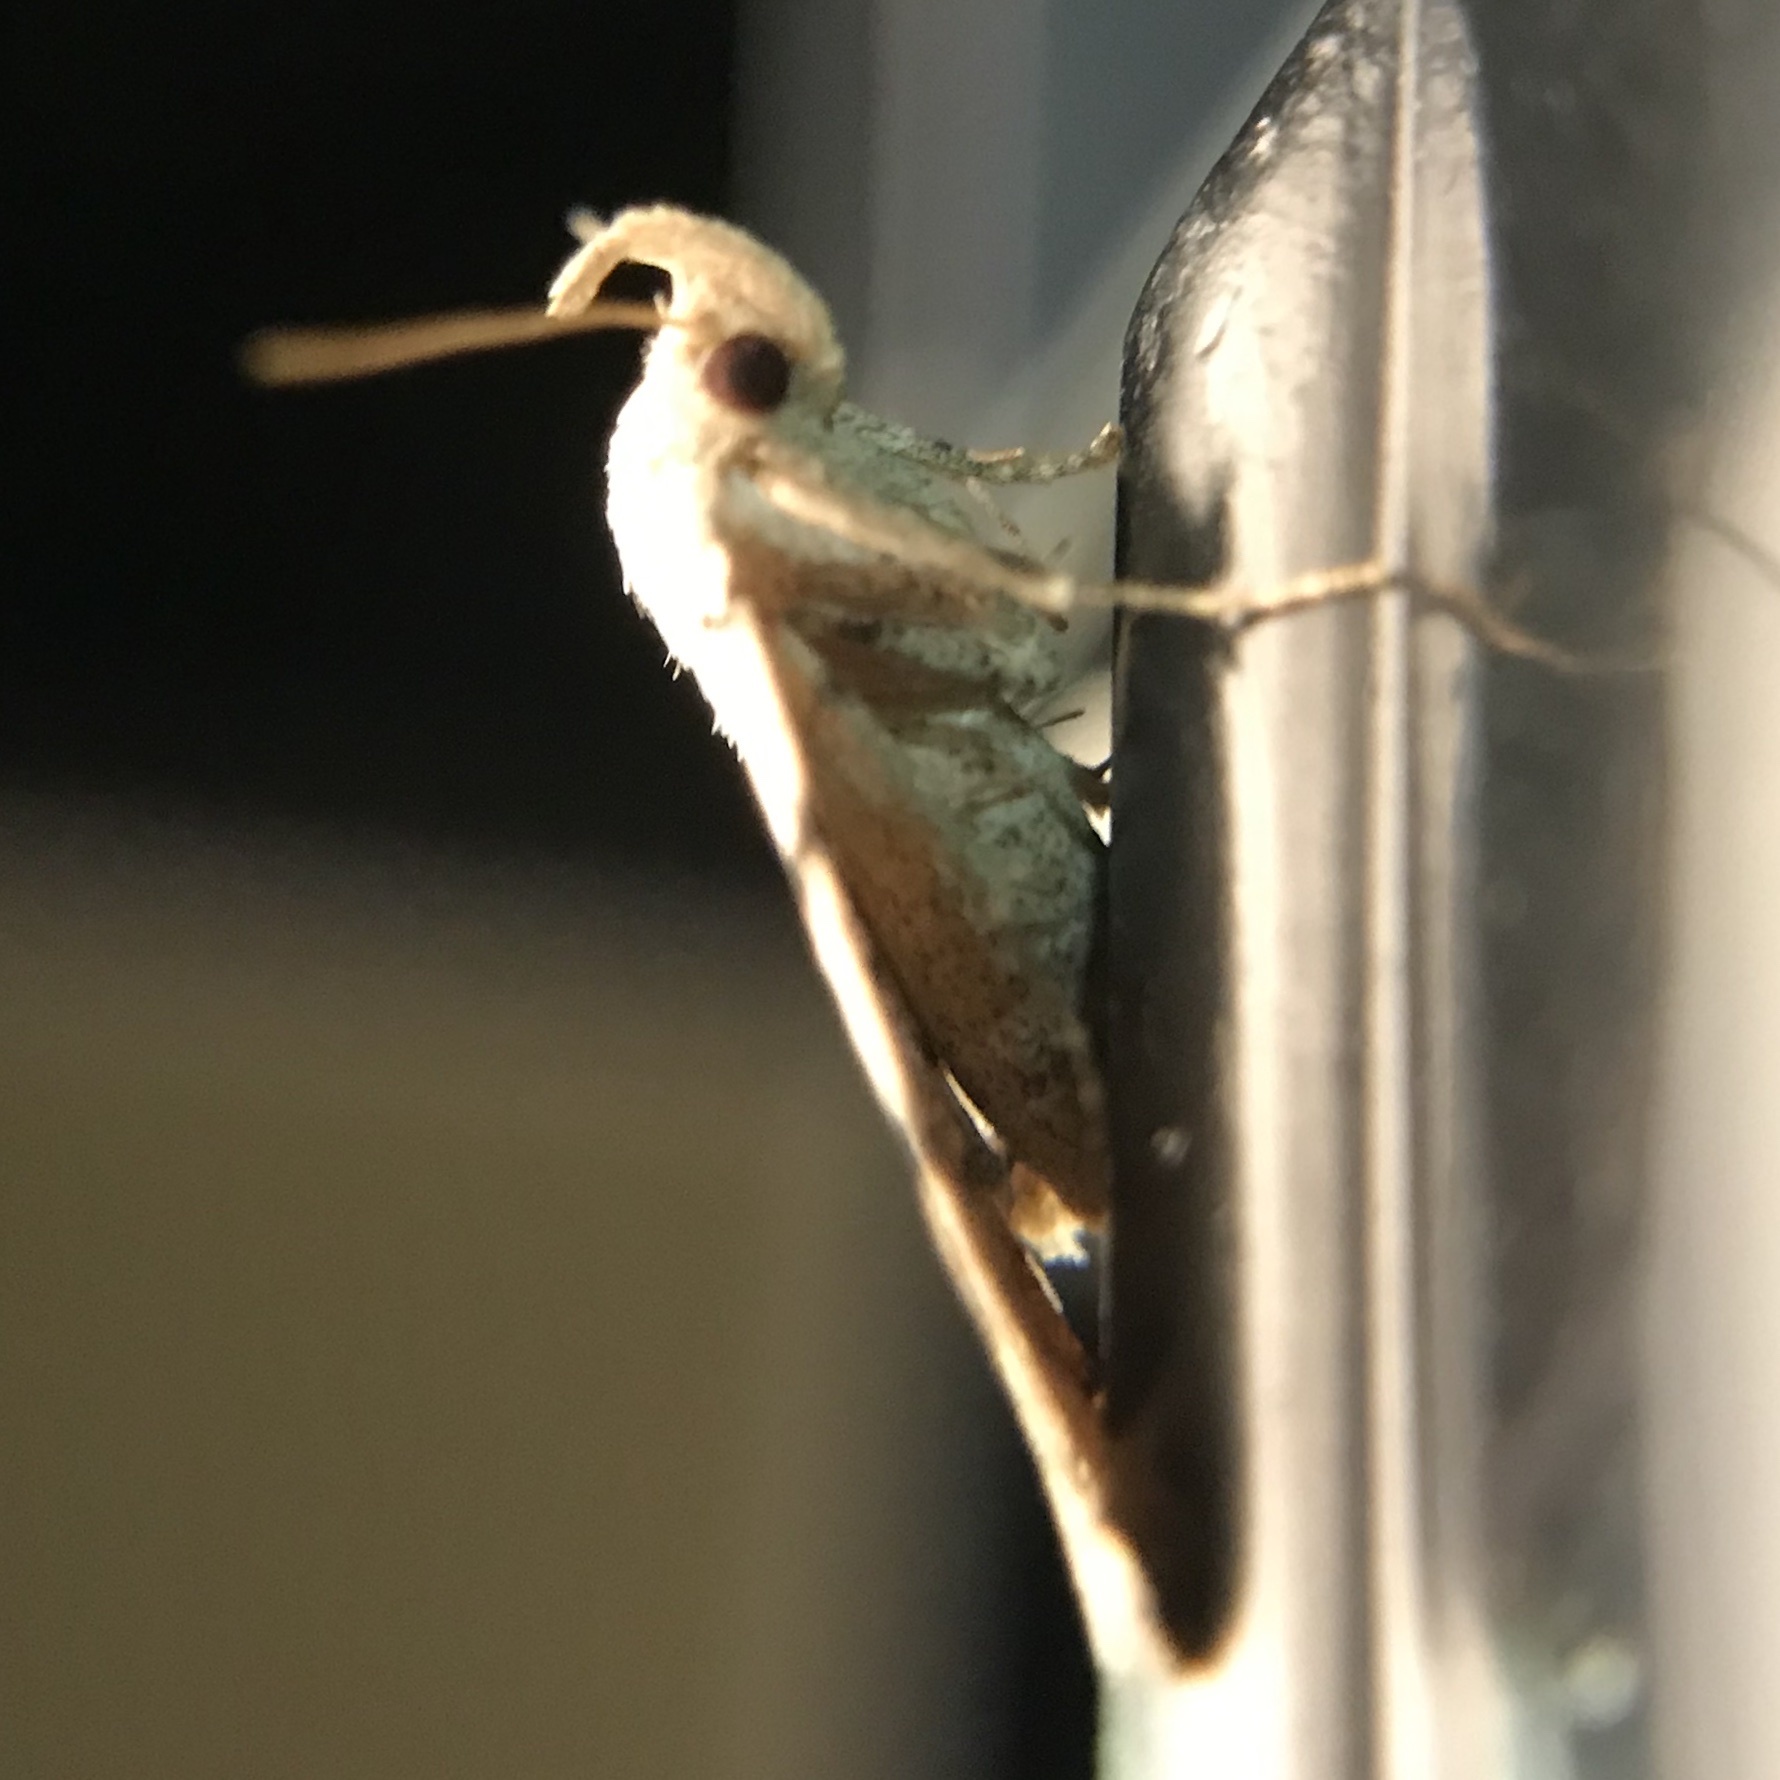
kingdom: Animalia
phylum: Arthropoda
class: Insecta
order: Lepidoptera
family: Erebidae
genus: Zanclognatha
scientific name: Zanclognatha theralis
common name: Flagged fan-foot
